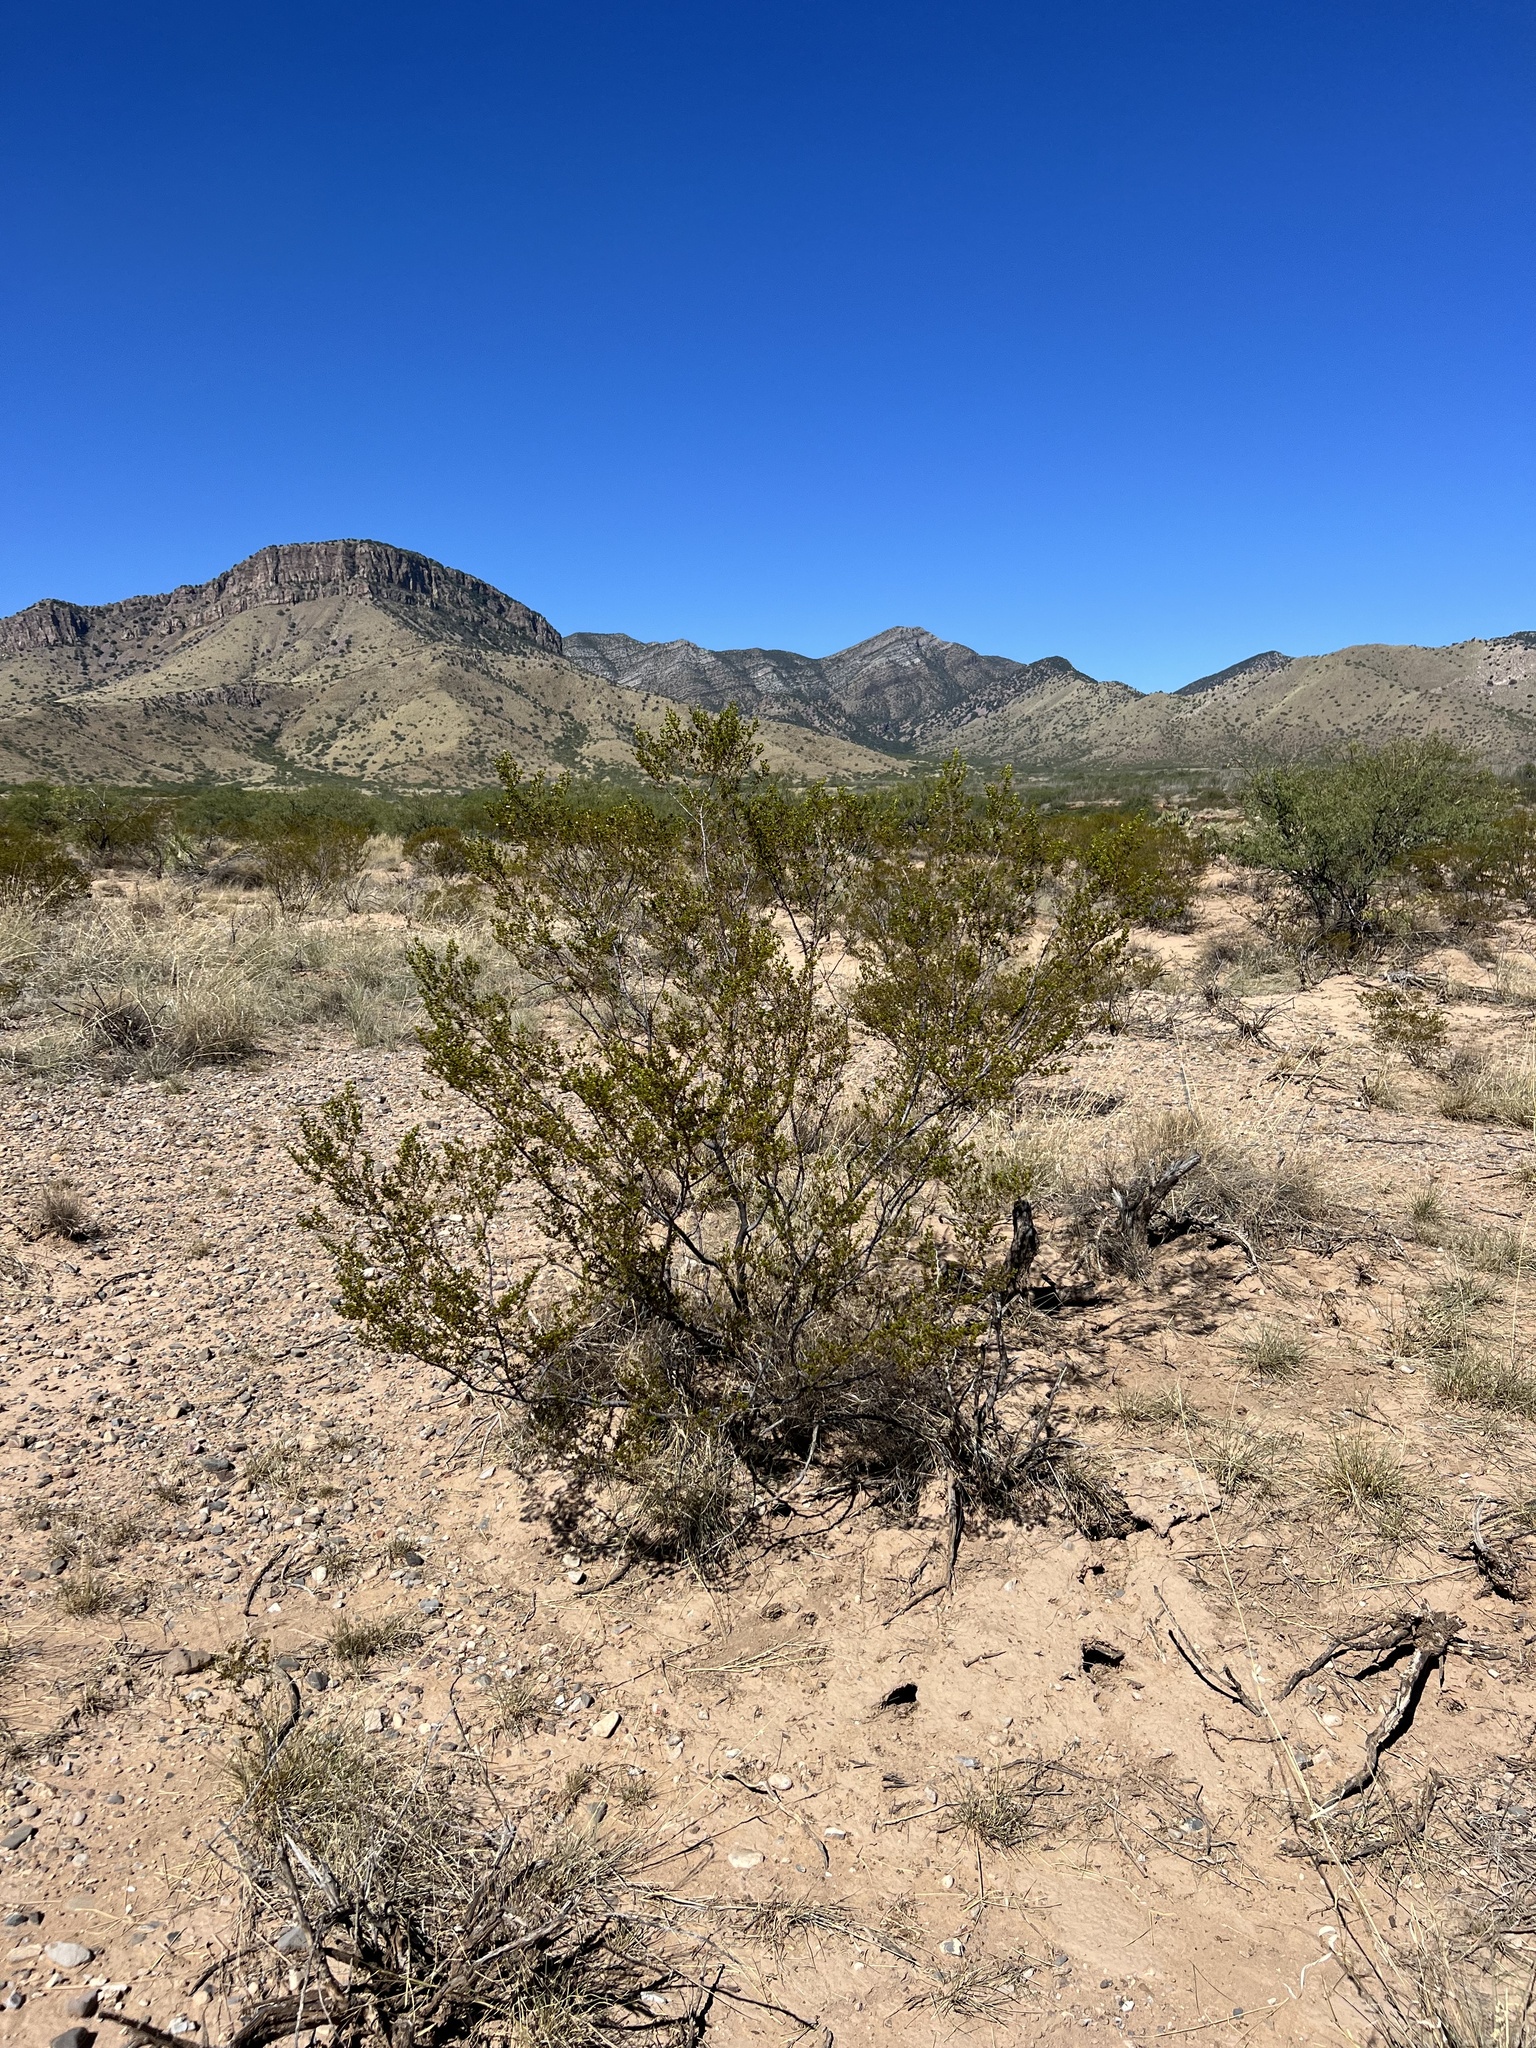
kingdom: Plantae
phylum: Tracheophyta
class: Magnoliopsida
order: Zygophyllales
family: Zygophyllaceae
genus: Larrea
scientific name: Larrea tridentata
